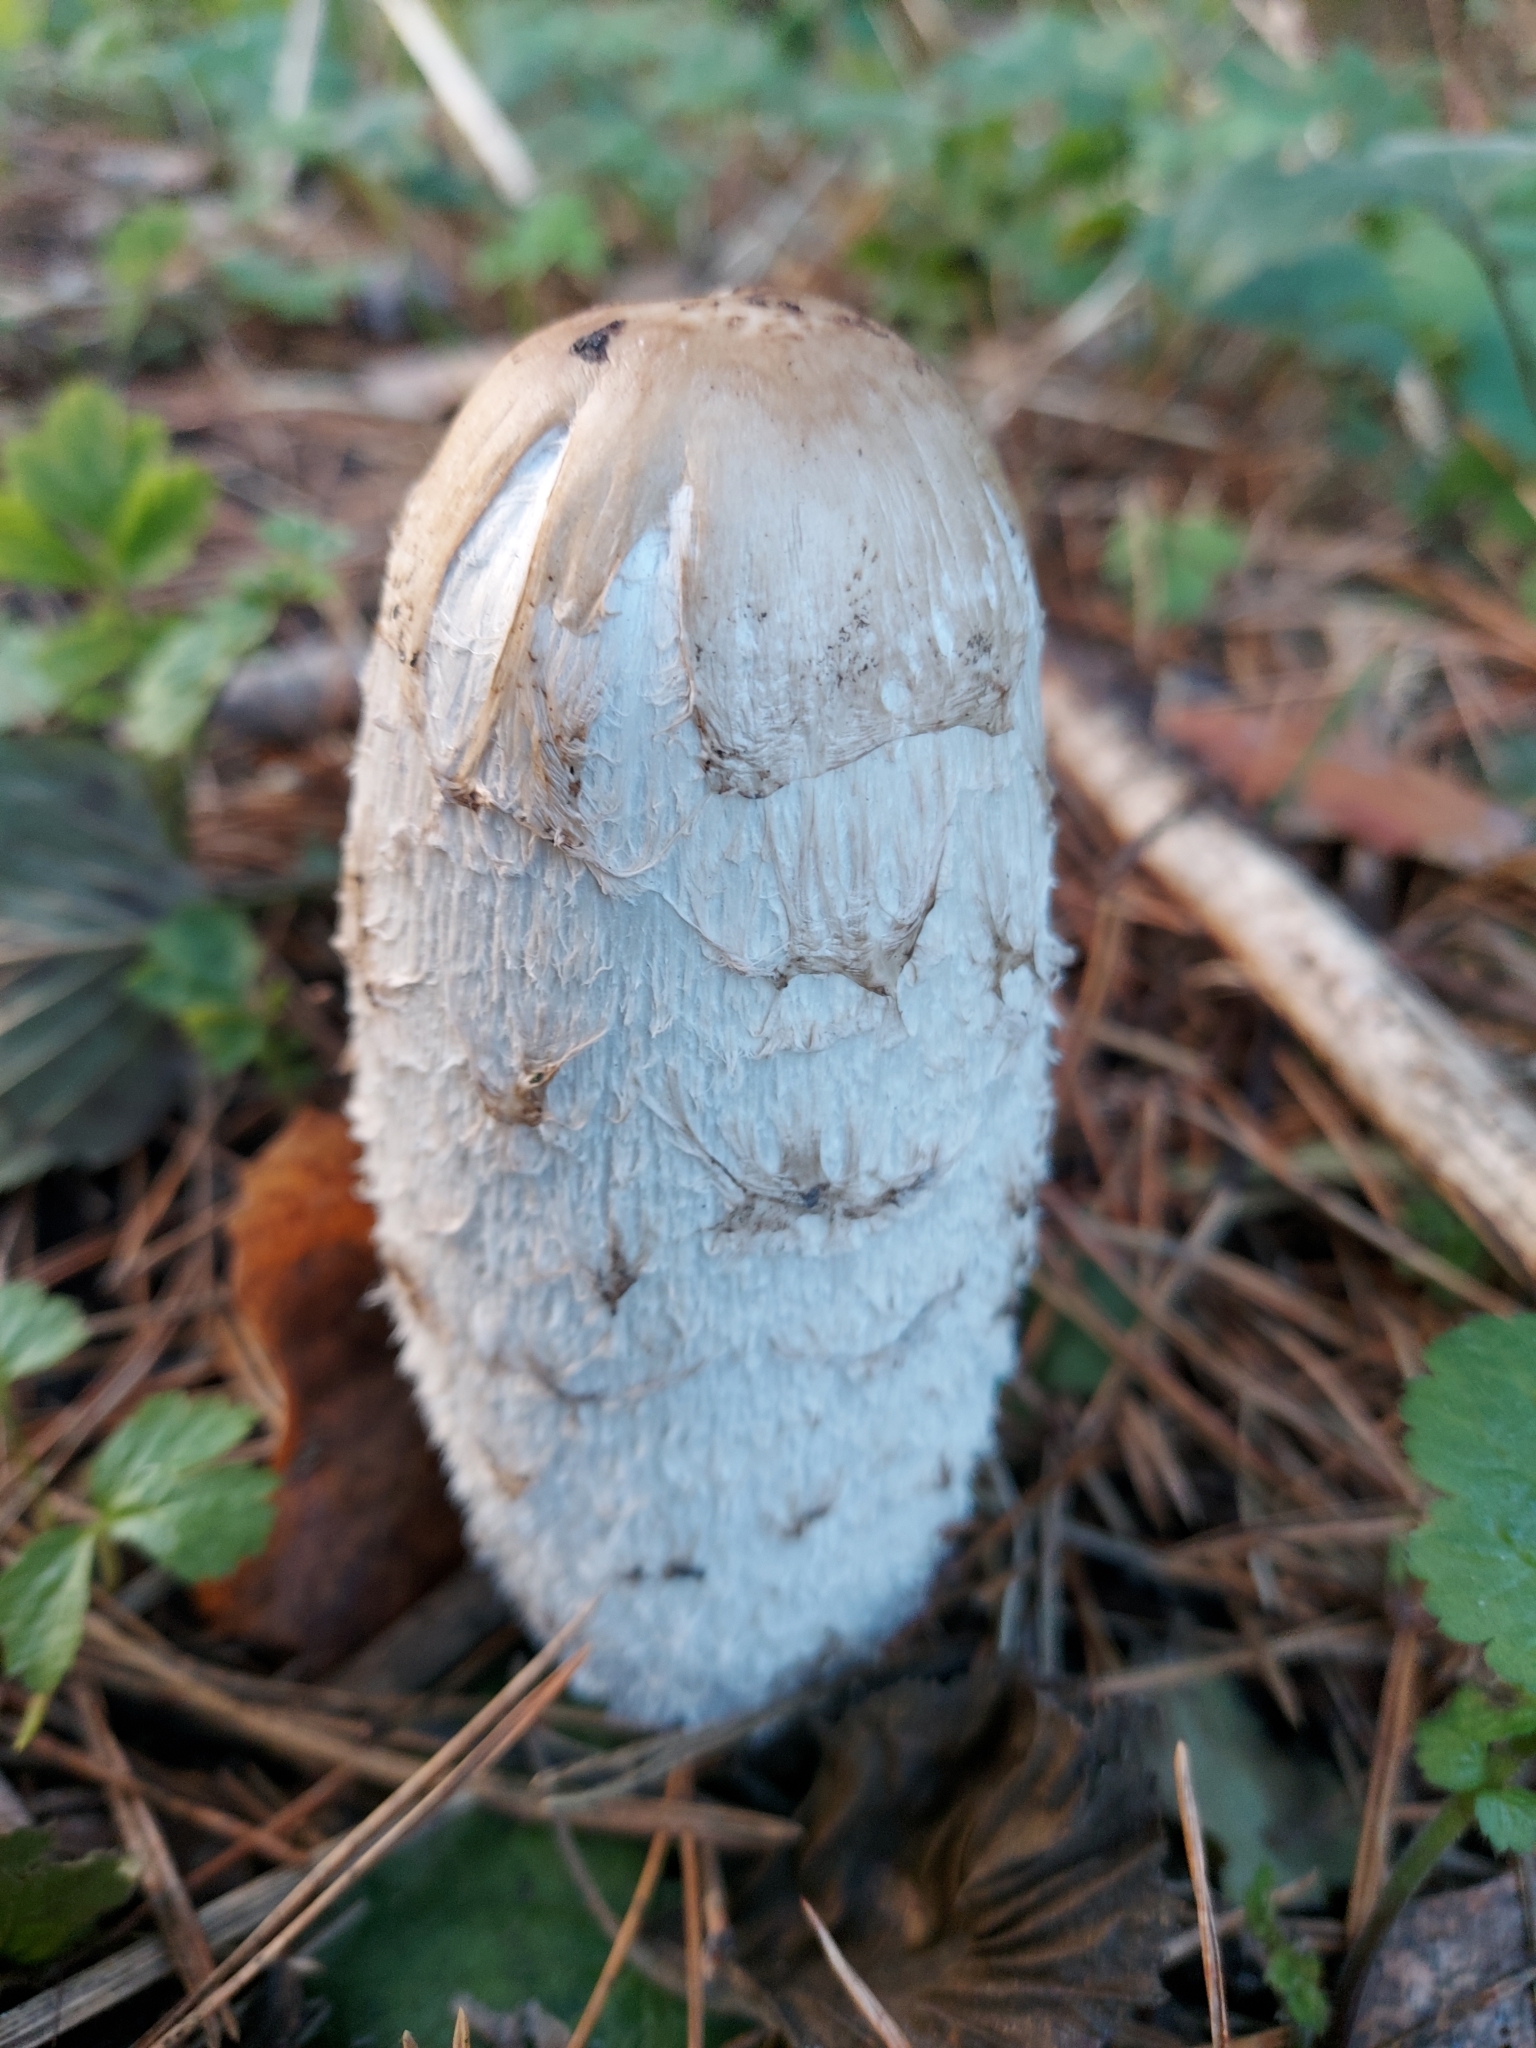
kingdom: Fungi
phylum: Basidiomycota
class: Agaricomycetes
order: Agaricales
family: Agaricaceae
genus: Coprinus
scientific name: Coprinus comatus
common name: Lawyer's wig
